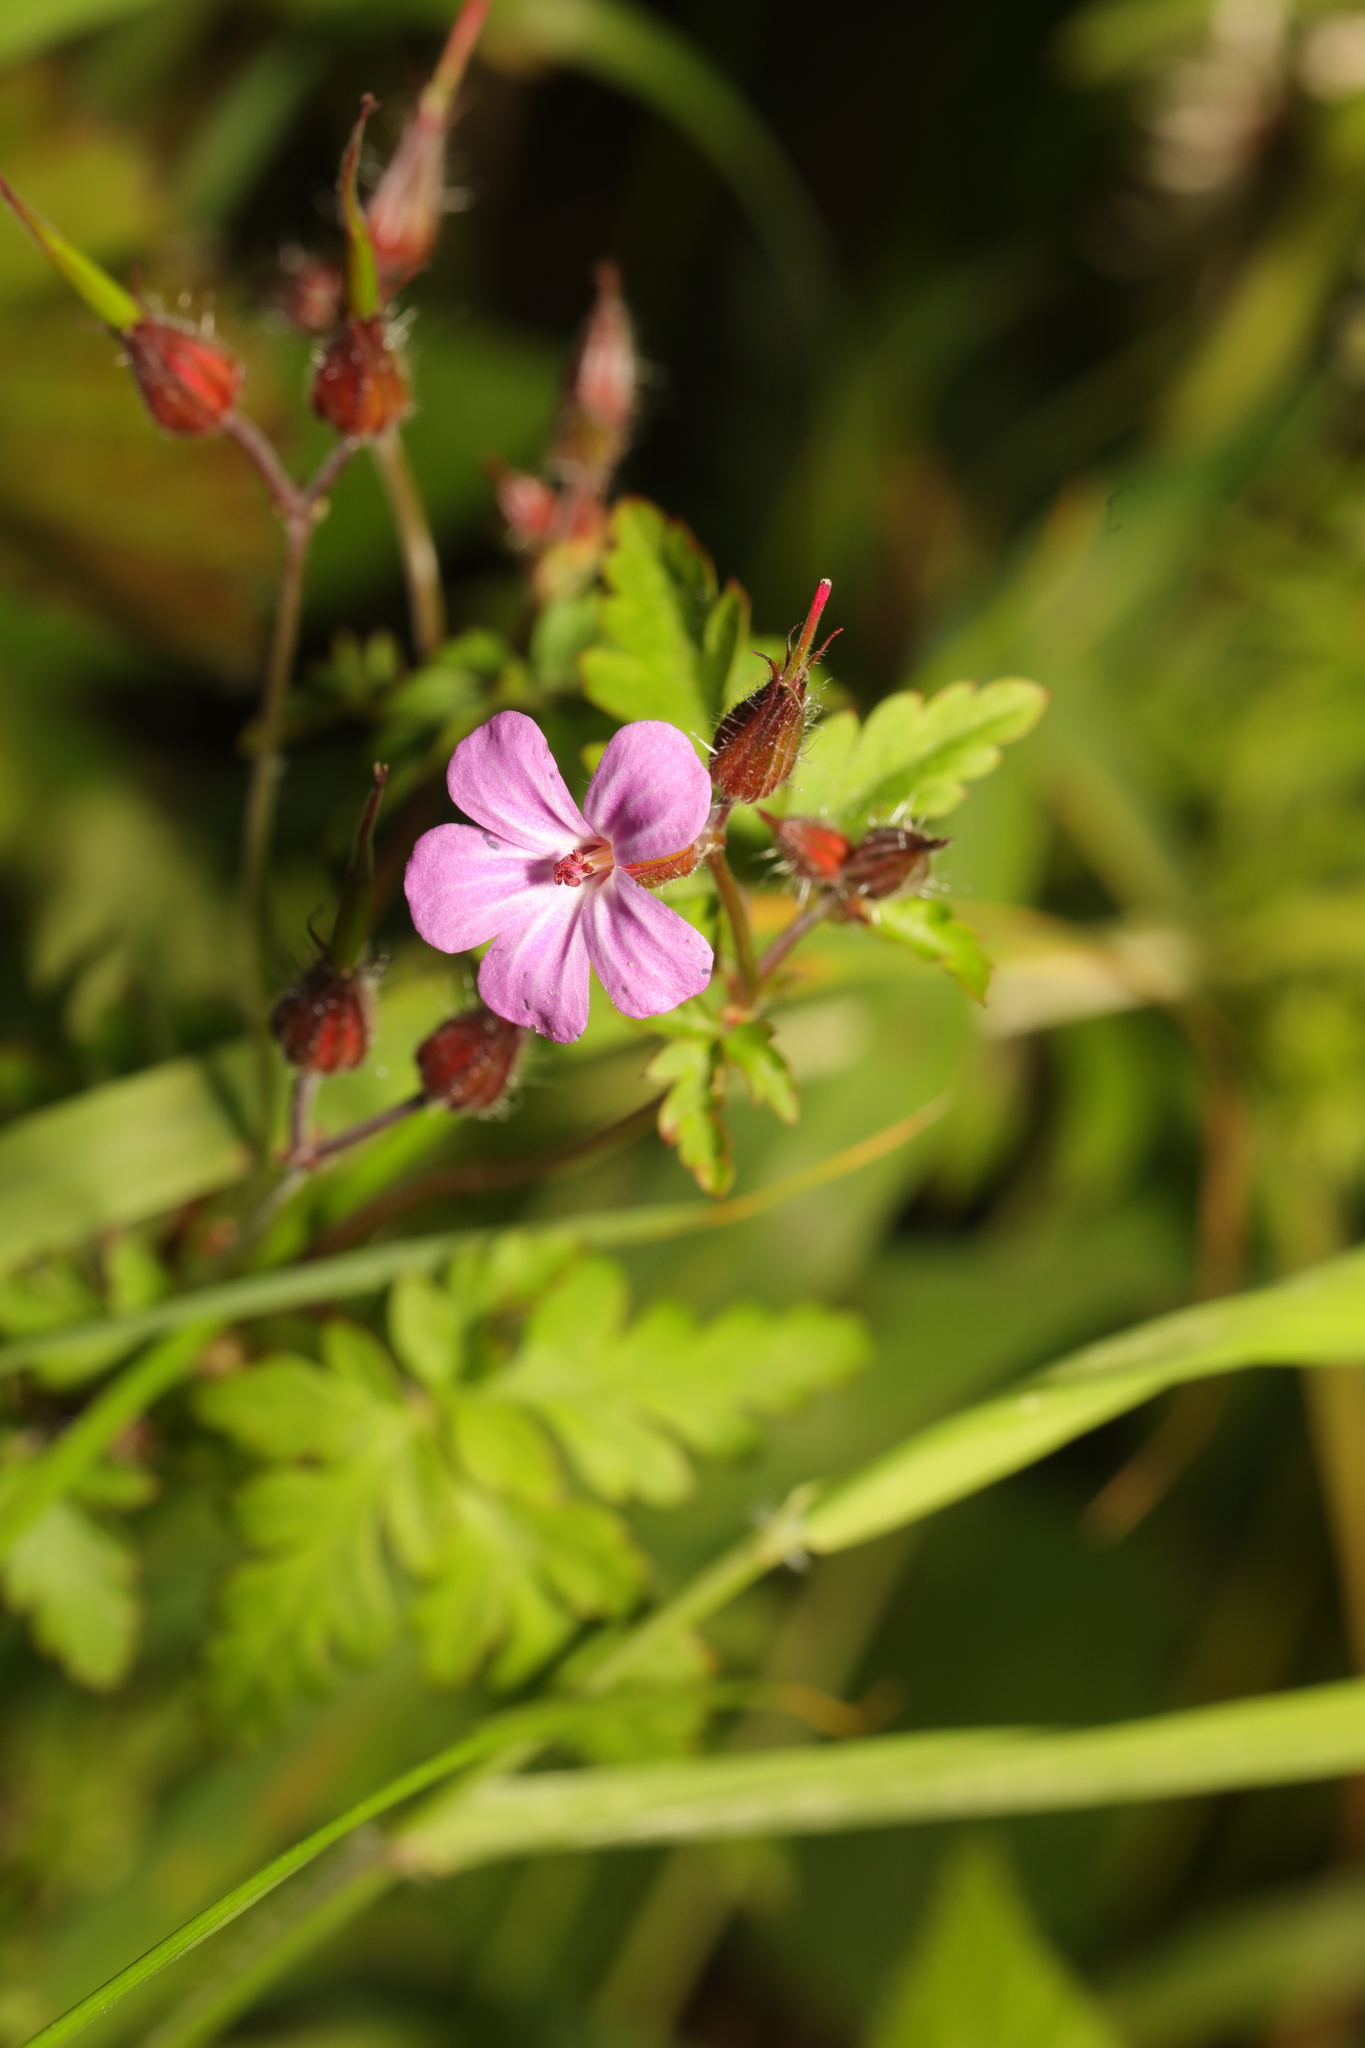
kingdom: Plantae
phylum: Tracheophyta
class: Magnoliopsida
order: Geraniales
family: Geraniaceae
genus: Geranium
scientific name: Geranium robertianum
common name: Herb-robert
